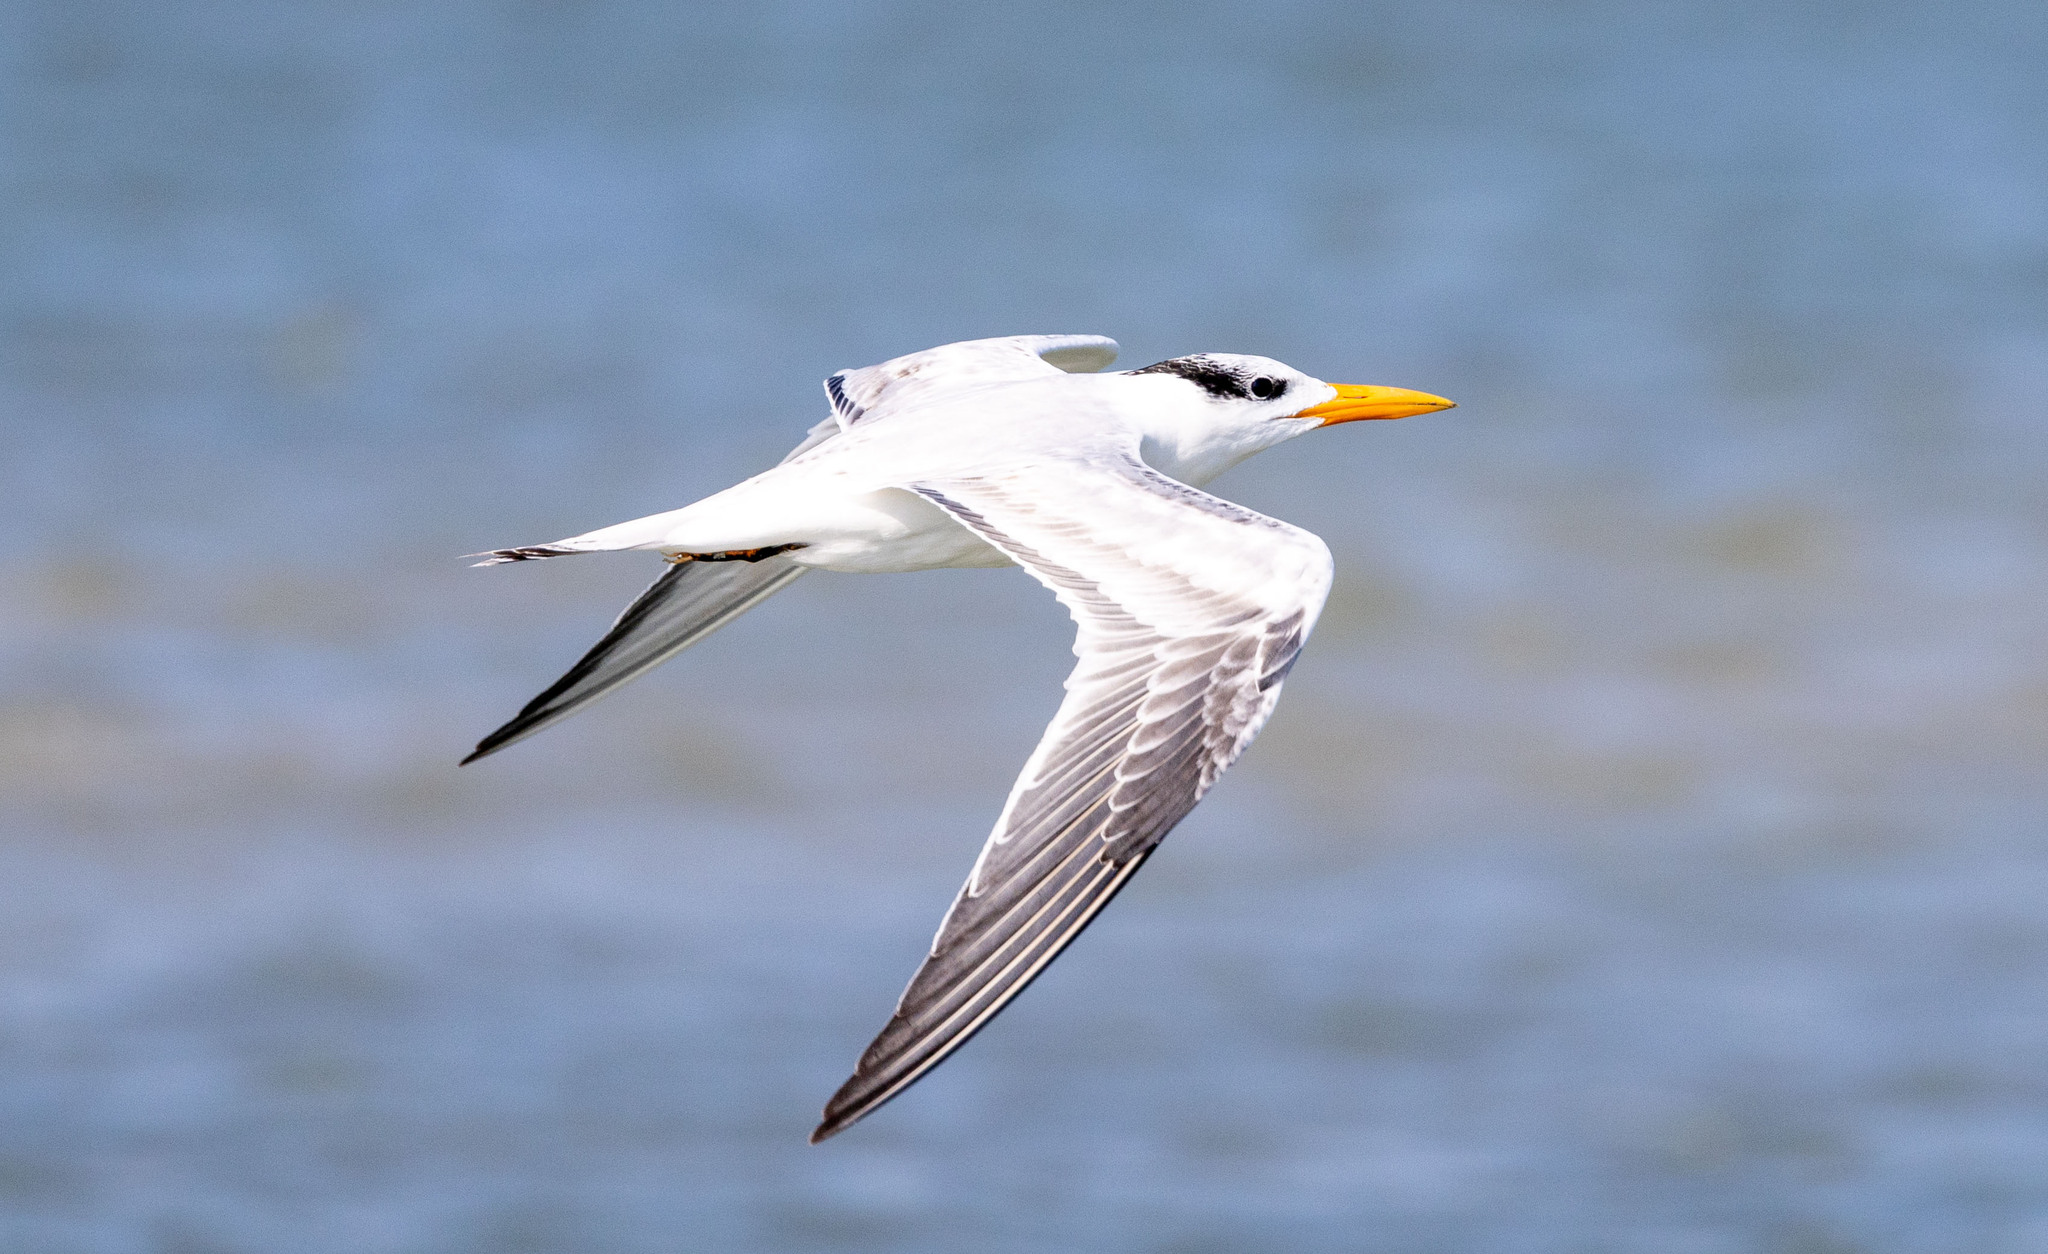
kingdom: Animalia
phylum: Chordata
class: Aves
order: Charadriiformes
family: Laridae
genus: Thalasseus
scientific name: Thalasseus maximus
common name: Royal tern
